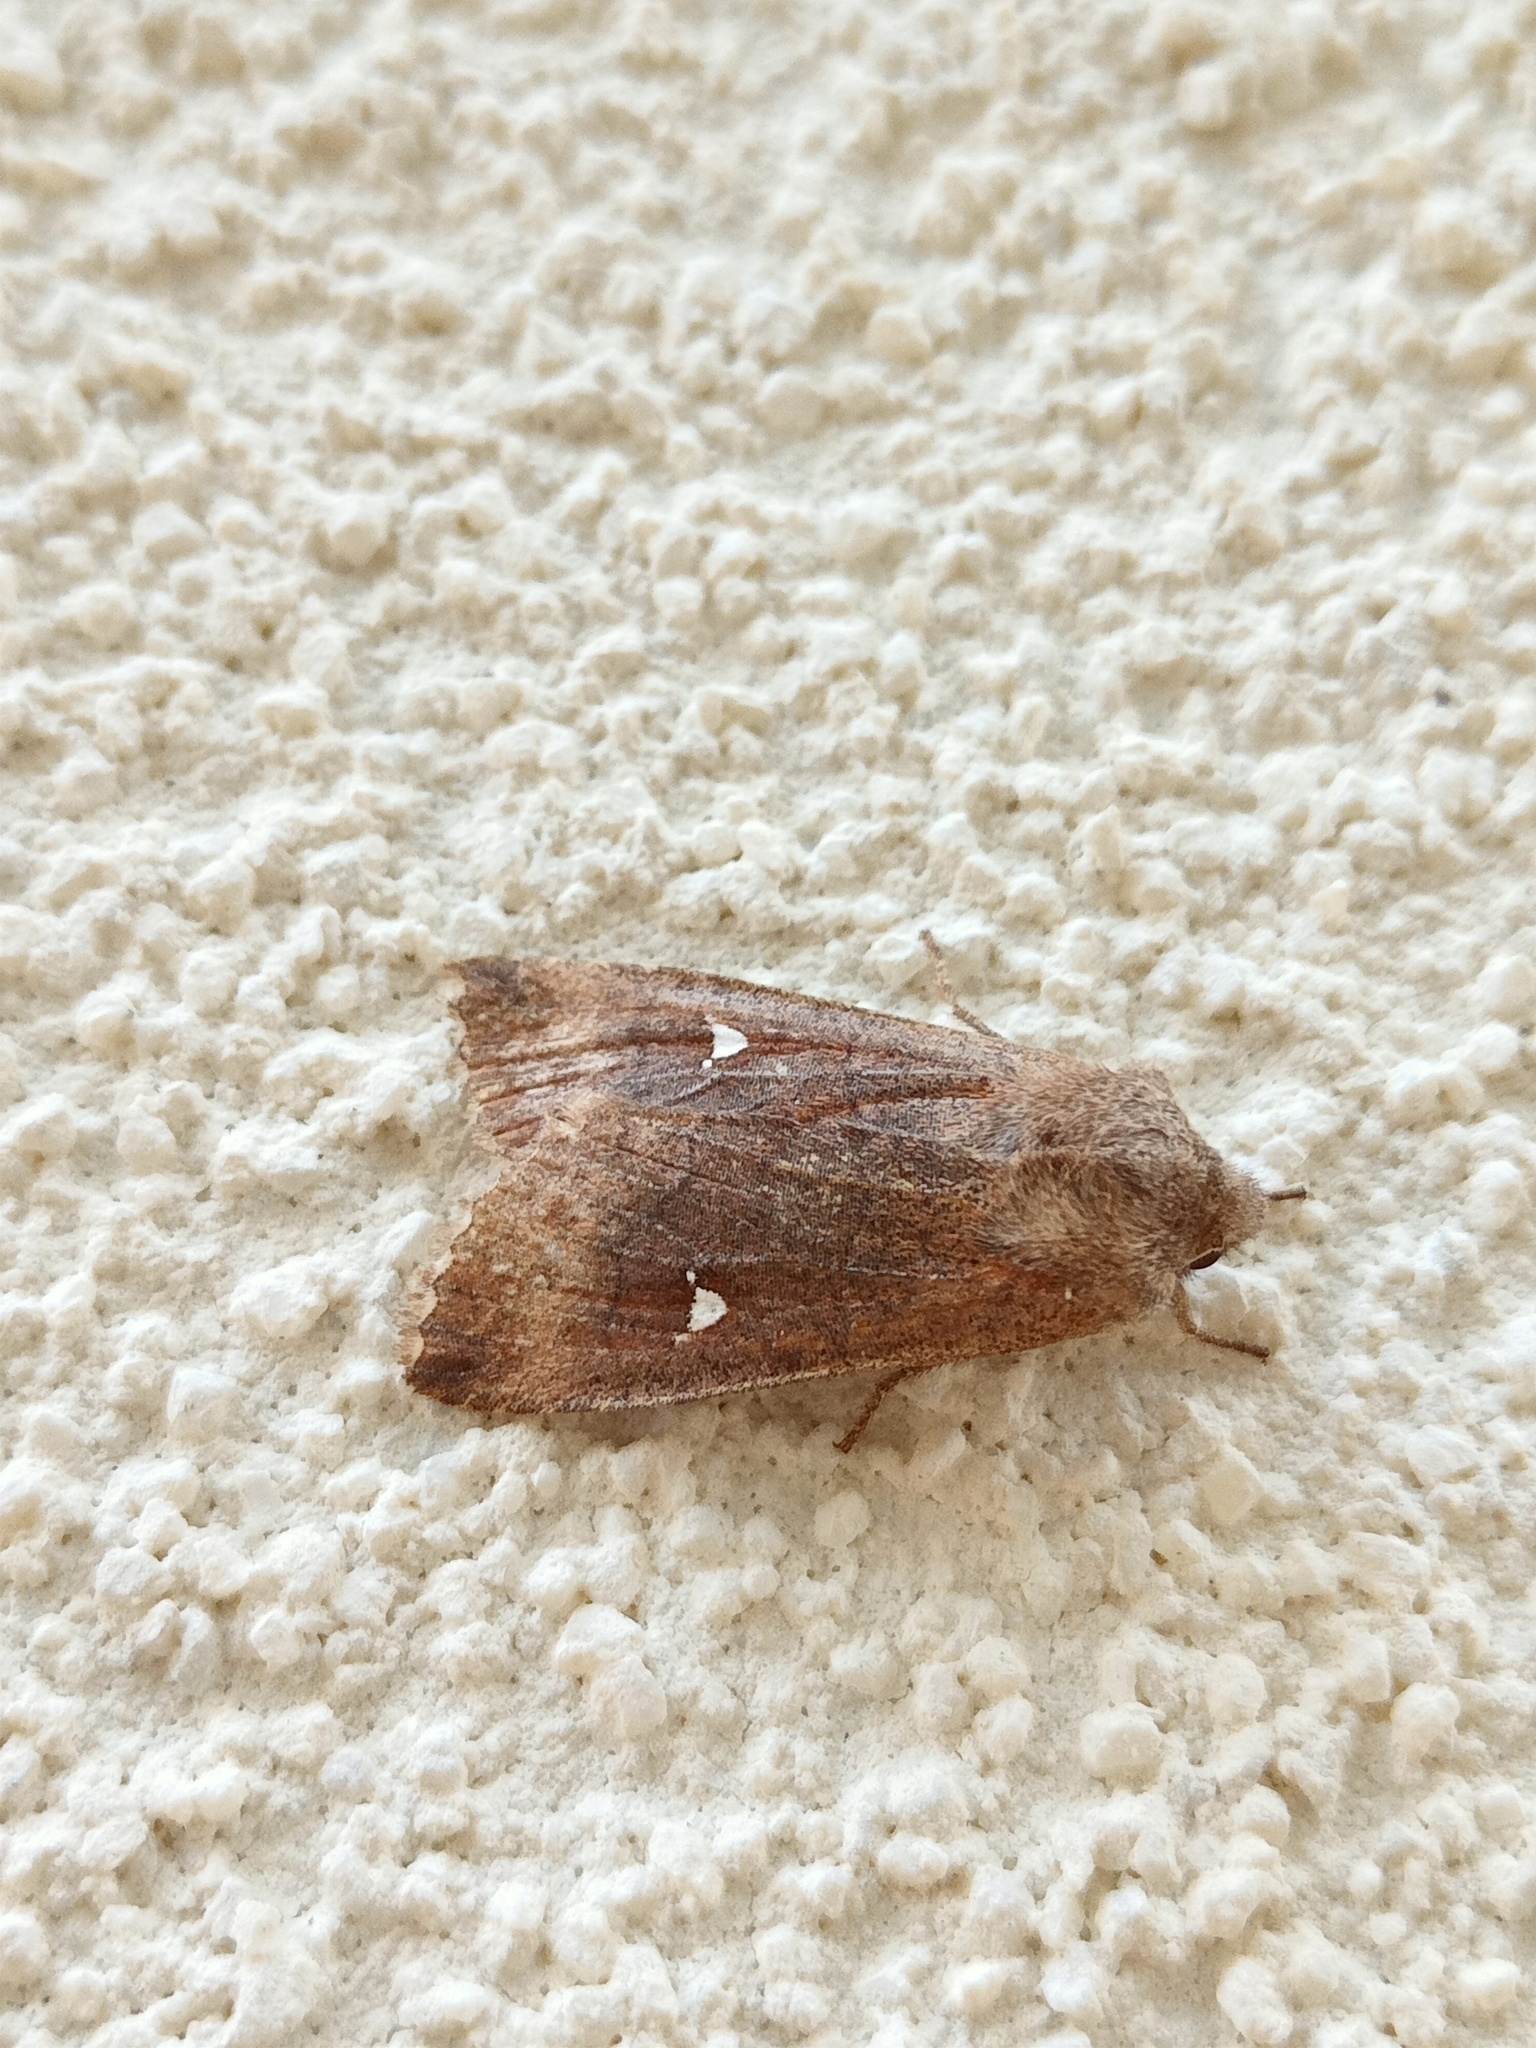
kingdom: Animalia
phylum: Arthropoda
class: Insecta
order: Lepidoptera
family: Noctuidae
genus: Eupsilia
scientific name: Eupsilia transversa
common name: Satellite
